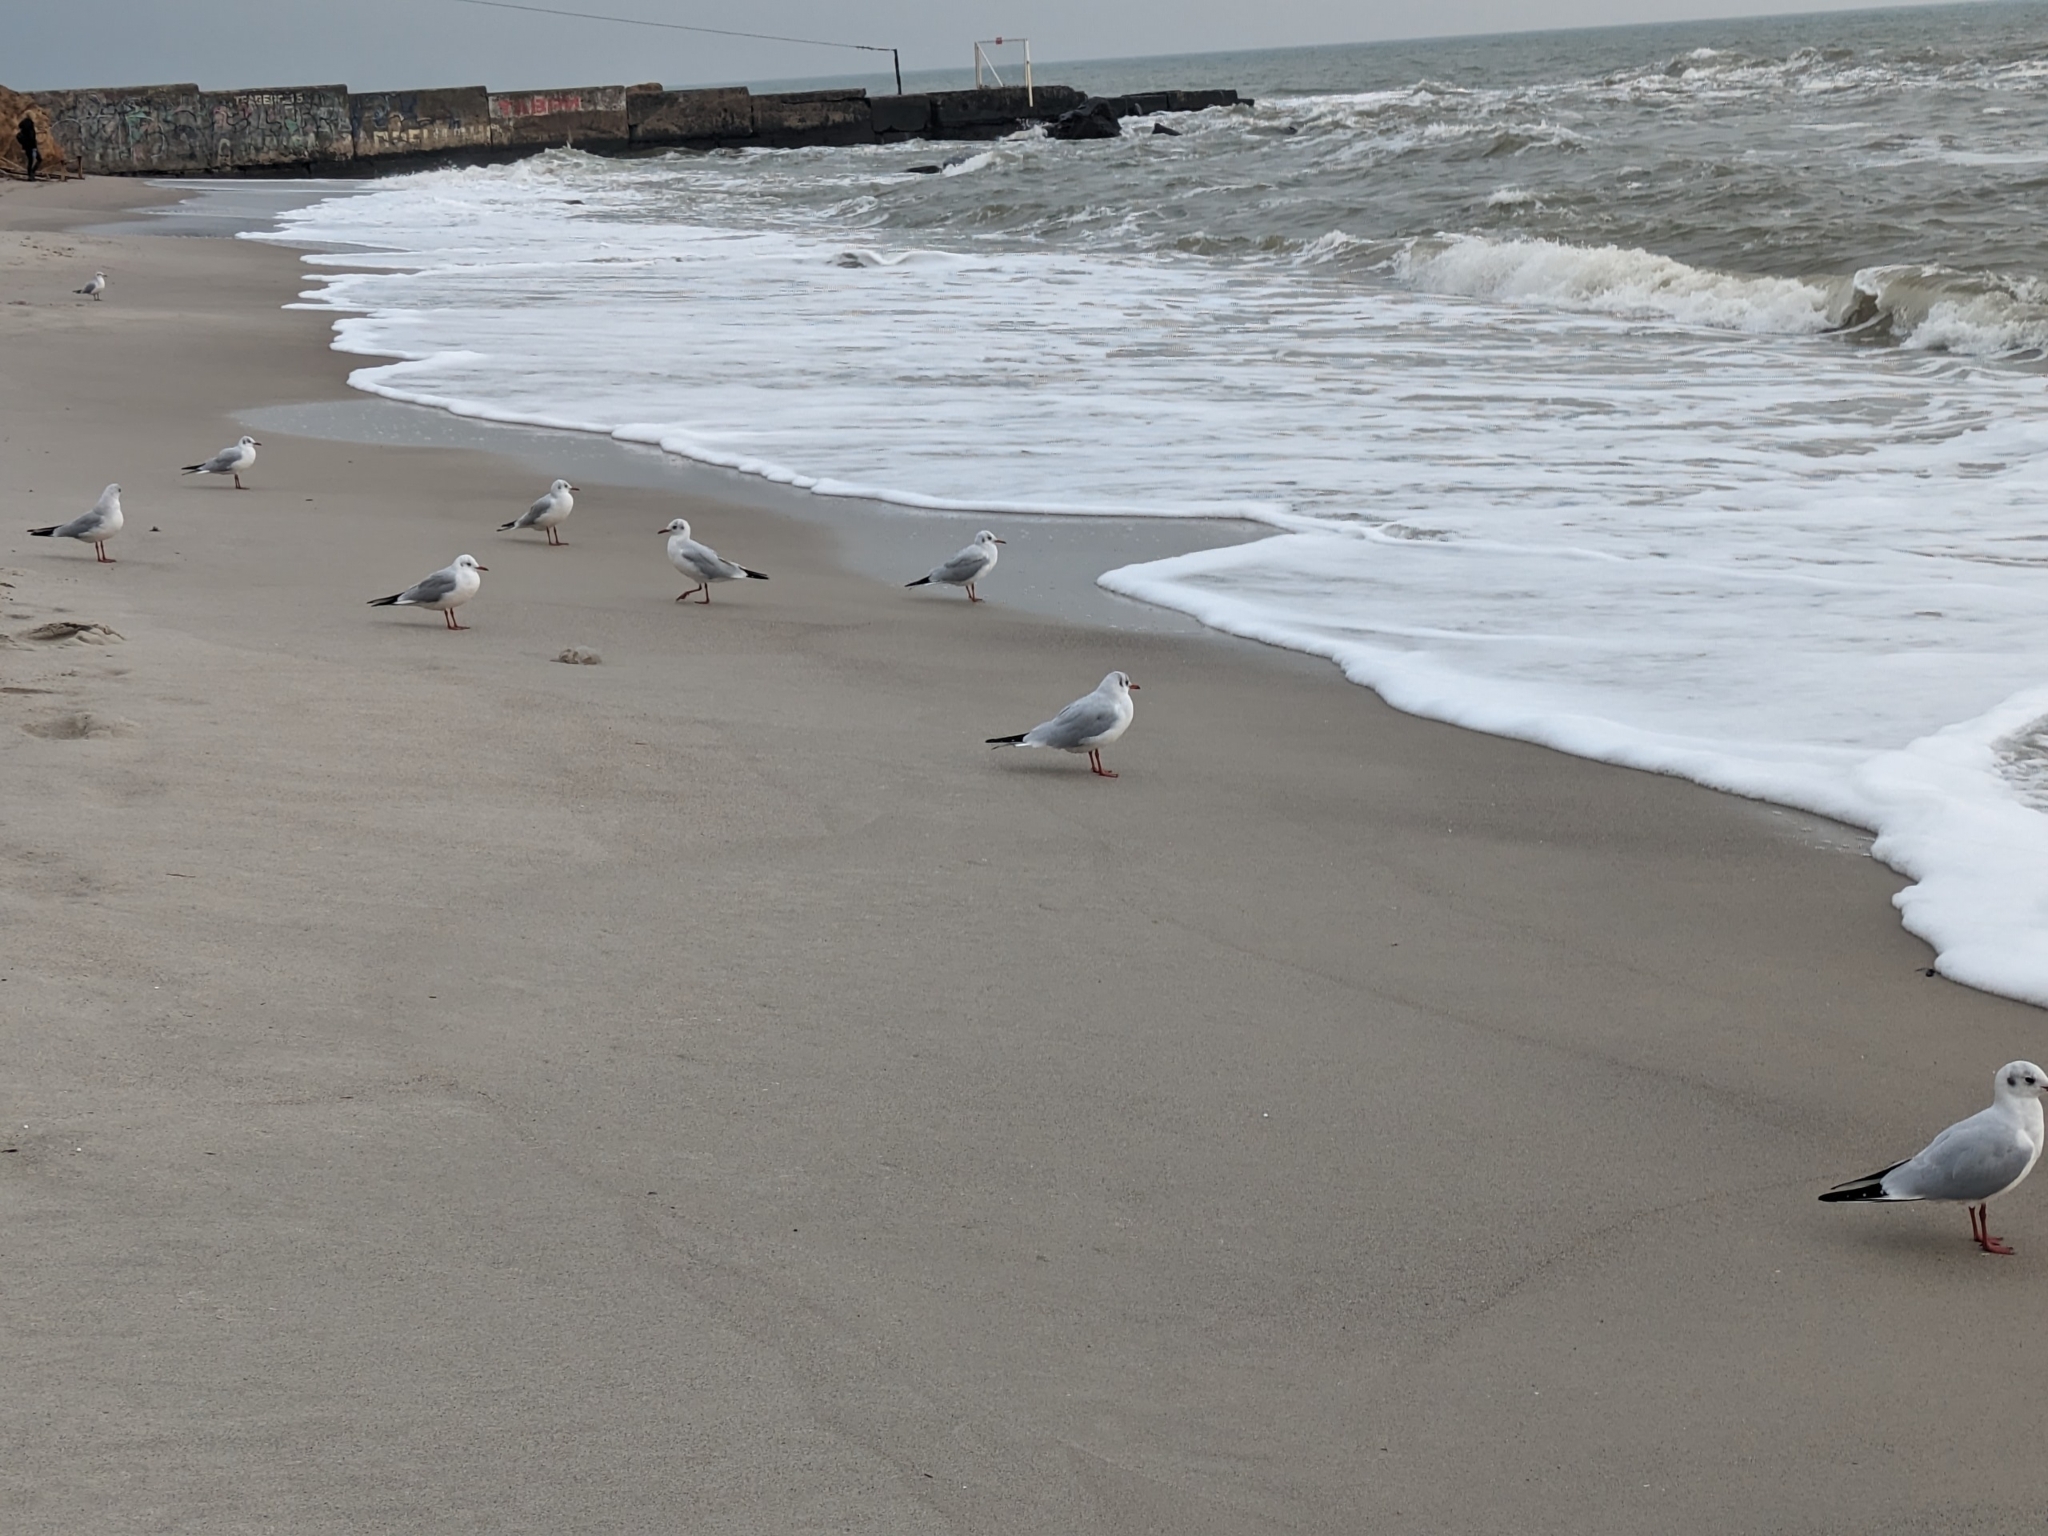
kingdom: Animalia
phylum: Chordata
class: Aves
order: Charadriiformes
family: Laridae
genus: Chroicocephalus
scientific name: Chroicocephalus ridibundus
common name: Black-headed gull
